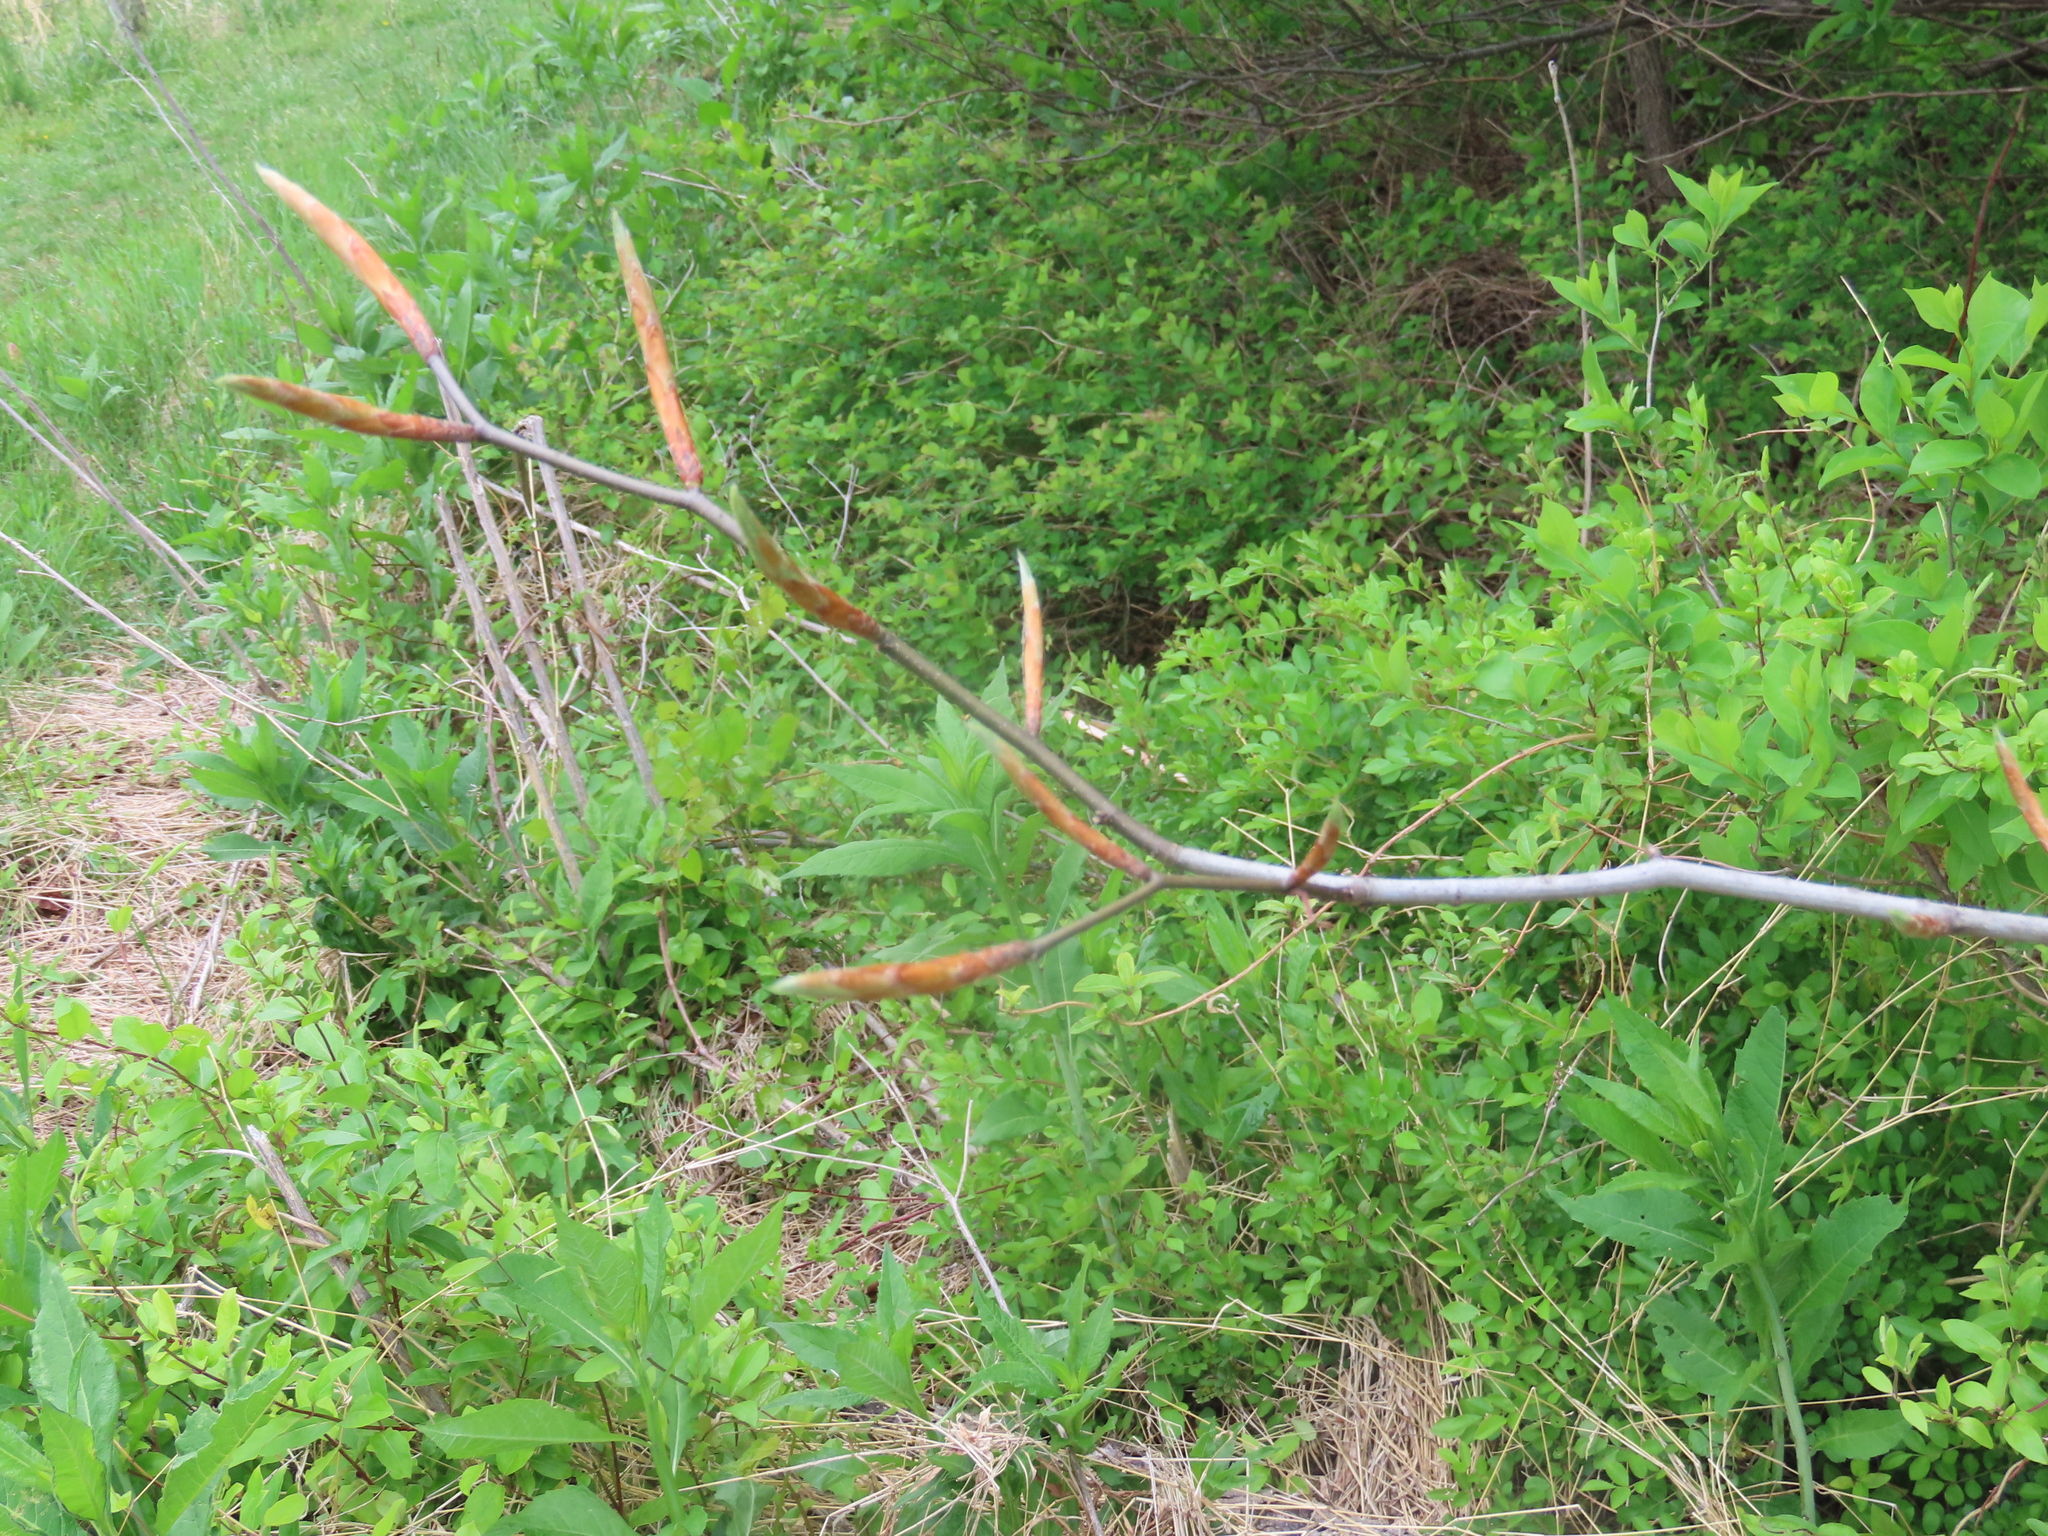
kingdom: Plantae
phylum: Tracheophyta
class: Magnoliopsida
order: Fagales
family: Fagaceae
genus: Fagus
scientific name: Fagus grandifolia
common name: American beech
